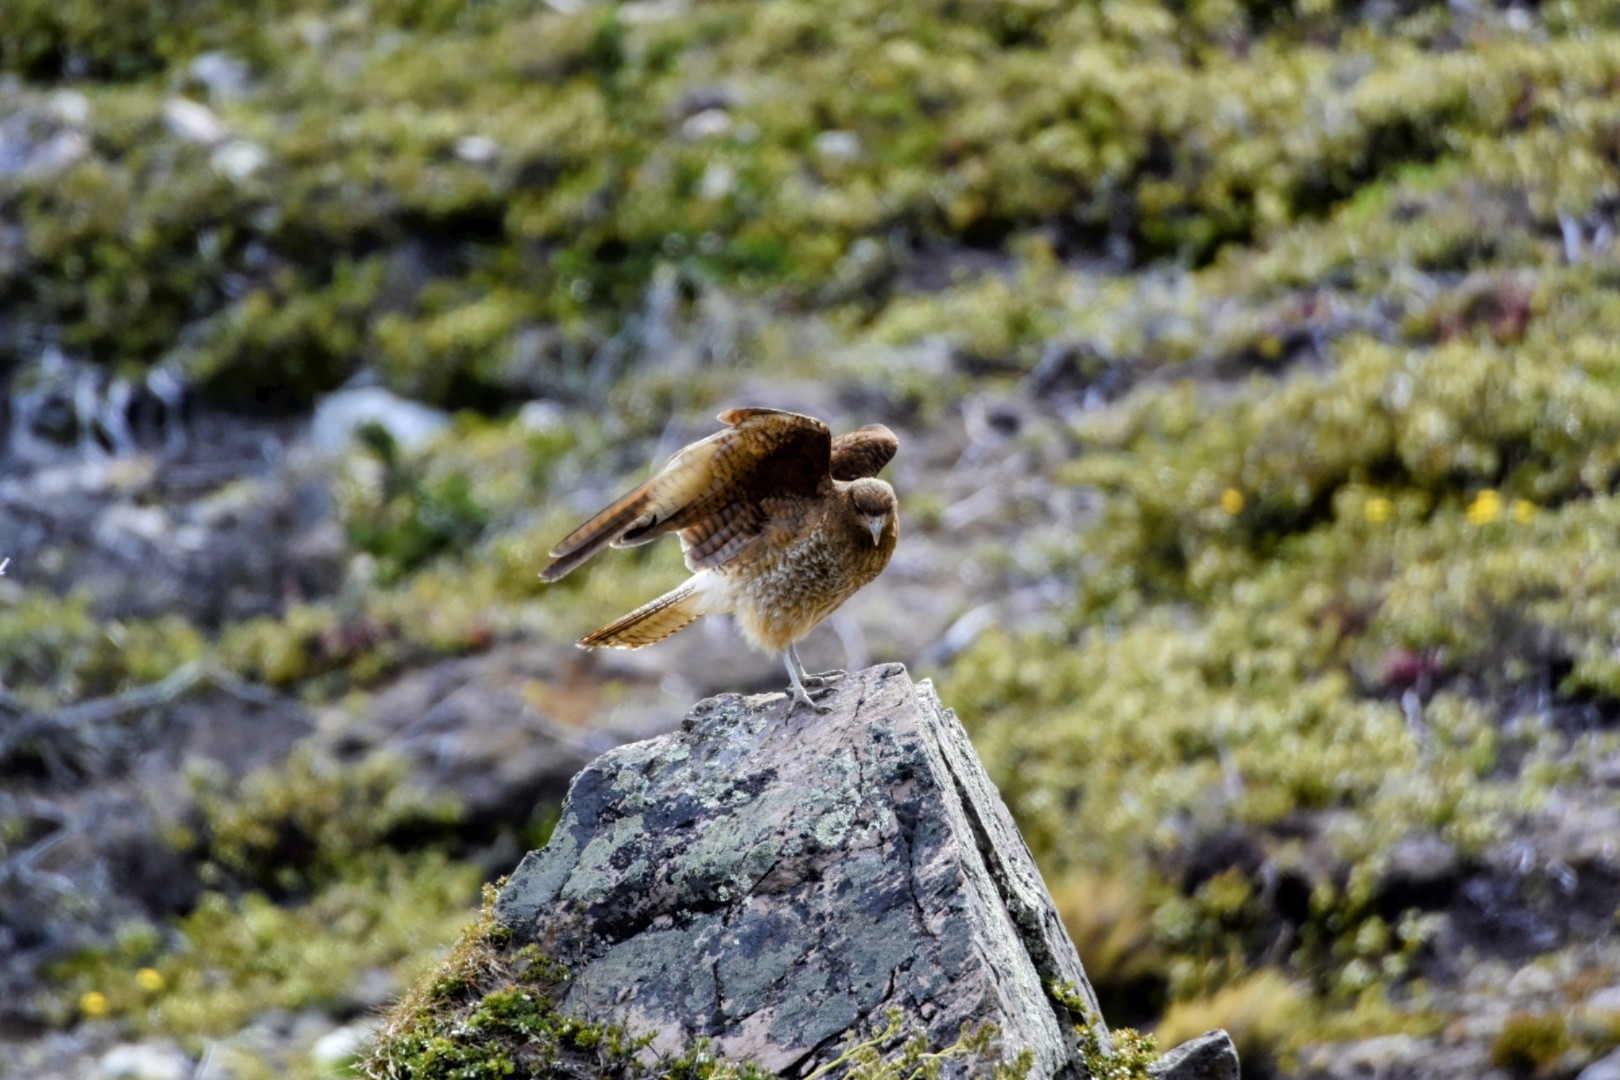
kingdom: Animalia
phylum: Chordata
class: Aves
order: Falconiformes
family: Falconidae
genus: Daptrius
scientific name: Daptrius
